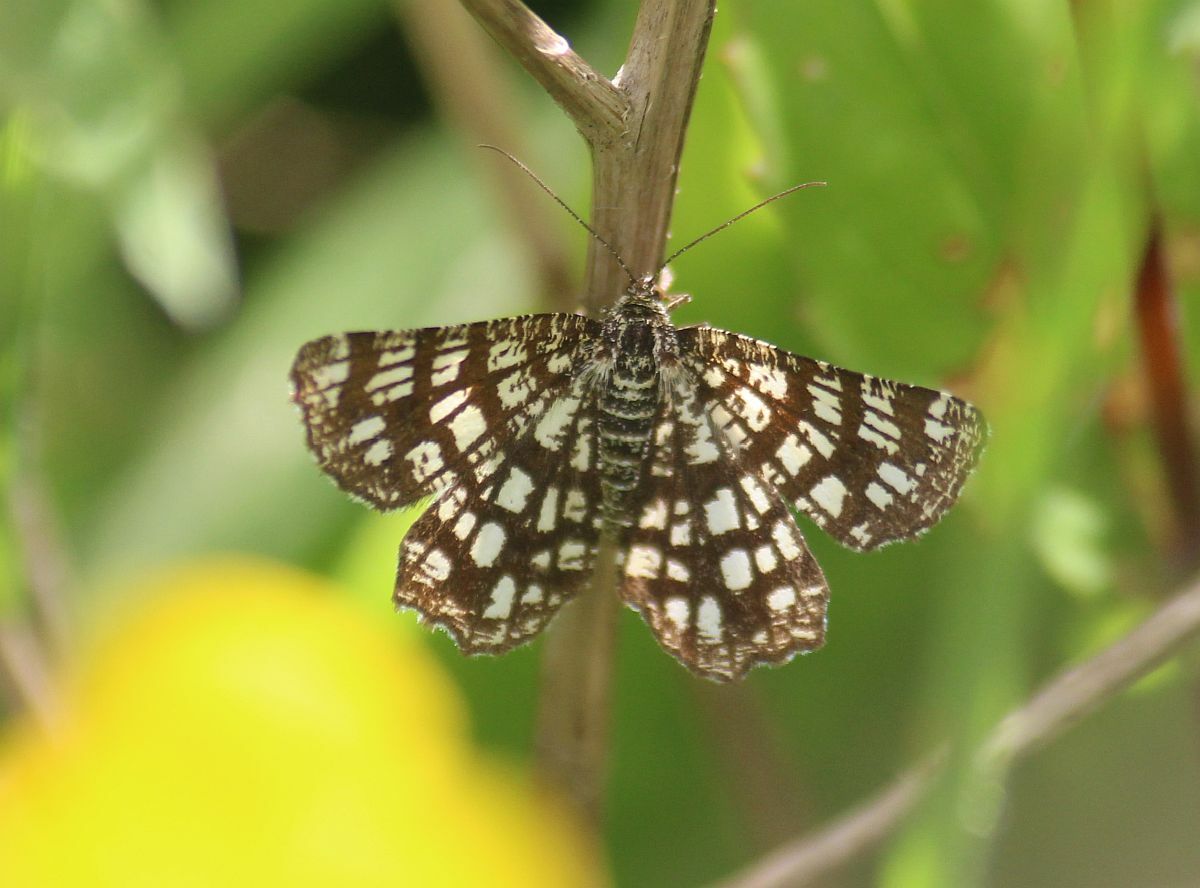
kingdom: Animalia
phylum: Arthropoda
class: Insecta
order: Lepidoptera
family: Geometridae
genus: Chiasmia
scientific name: Chiasmia clathrata
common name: Latticed heath
